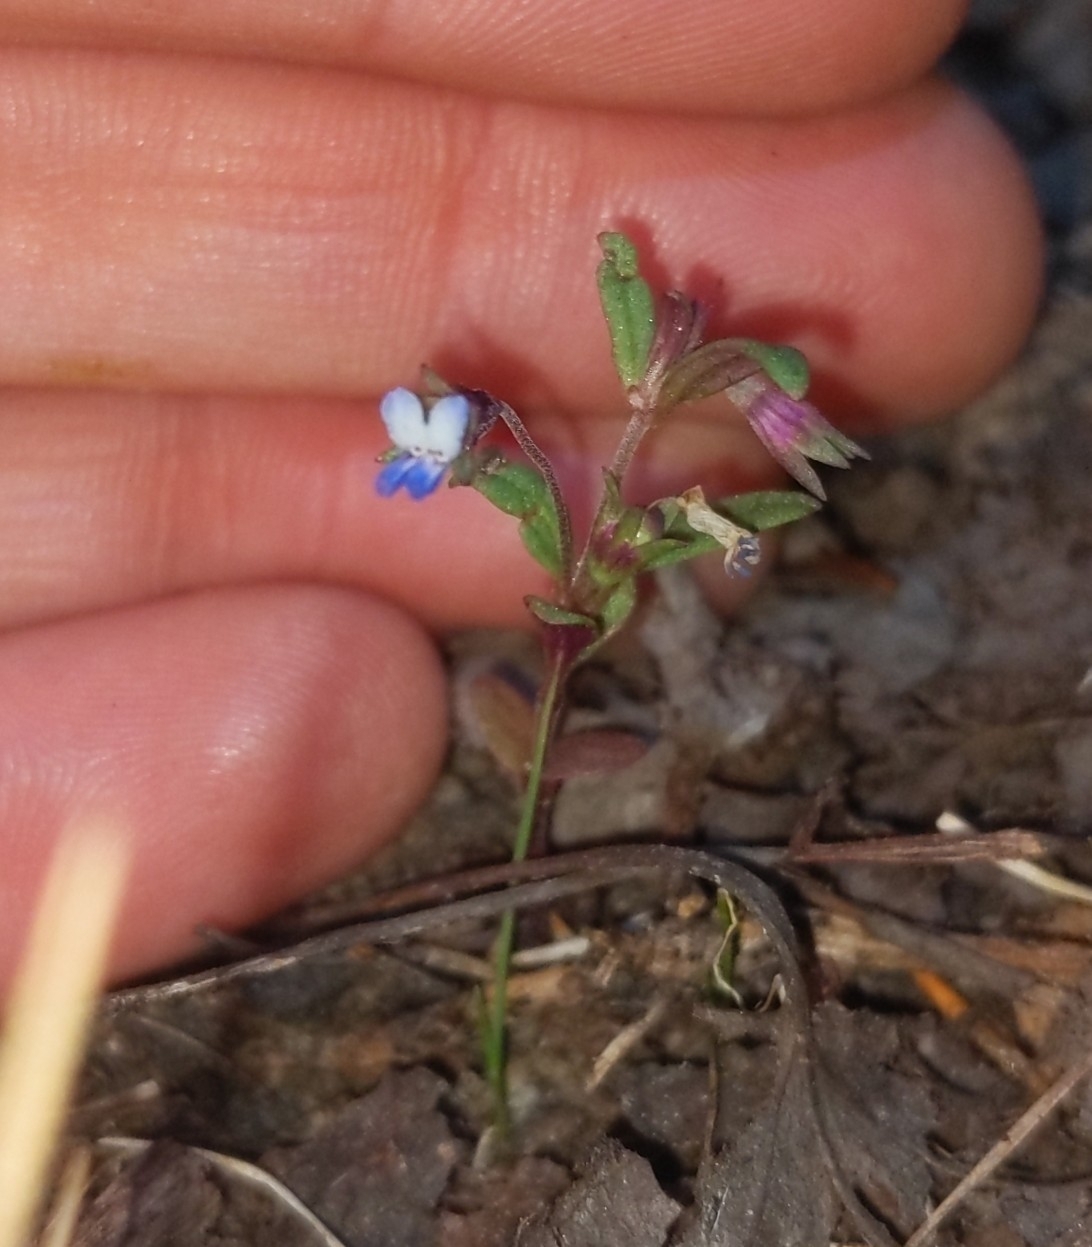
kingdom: Plantae
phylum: Tracheophyta
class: Magnoliopsida
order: Lamiales
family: Plantaginaceae
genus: Collinsia
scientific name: Collinsia parviflora
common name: Blue-lips
